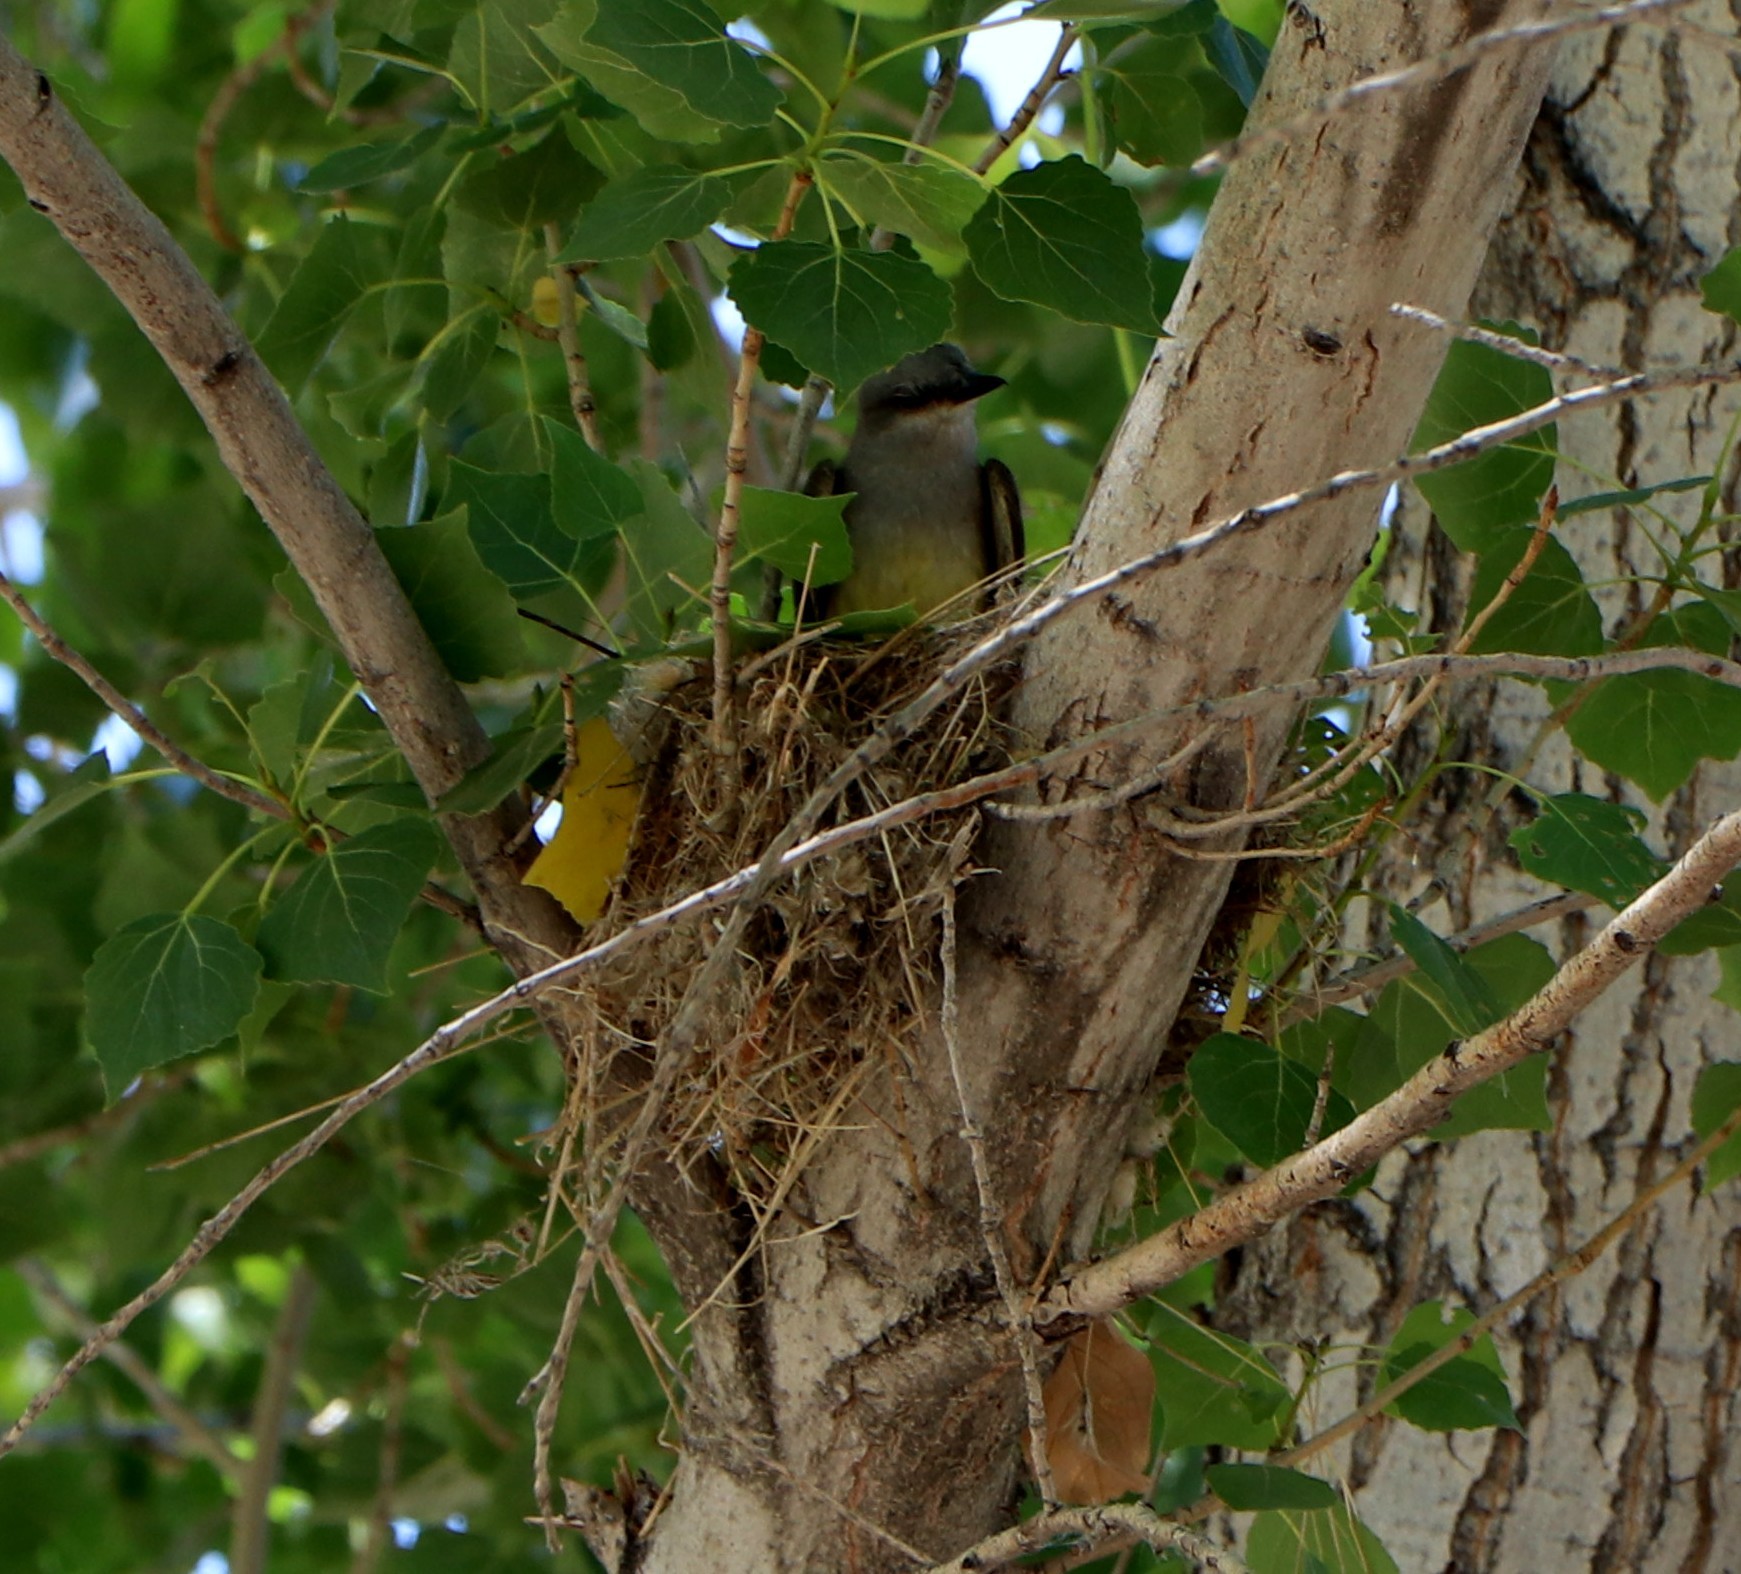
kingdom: Animalia
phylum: Chordata
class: Aves
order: Passeriformes
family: Tyrannidae
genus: Tyrannus
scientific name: Tyrannus vociferans
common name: Cassin's kingbird
